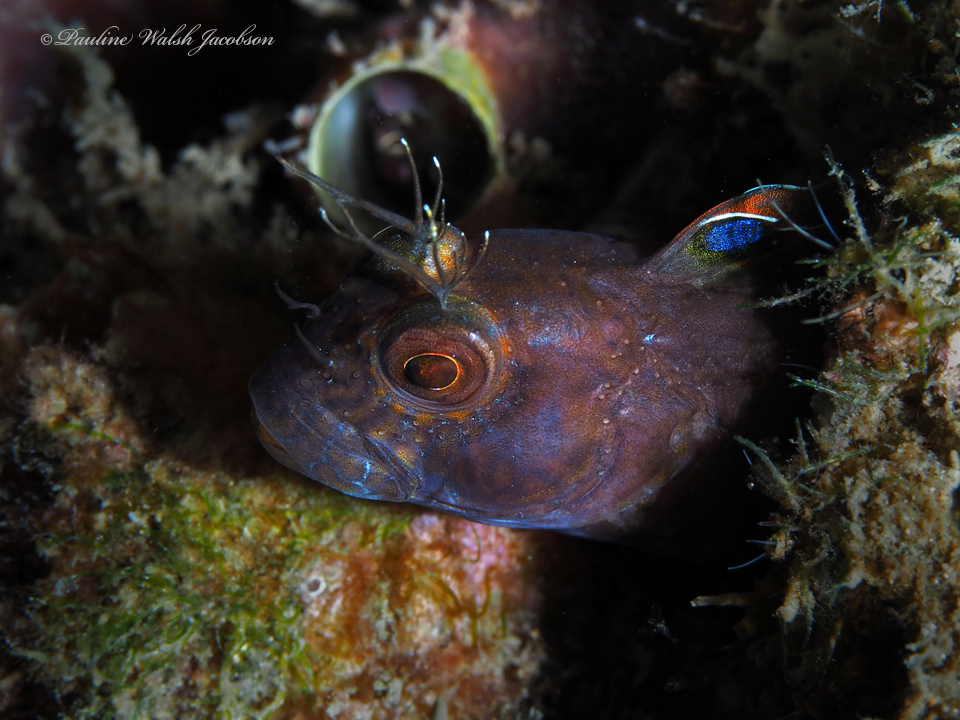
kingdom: Animalia
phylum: Chordata
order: Perciformes
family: Blenniidae
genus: Parablennius
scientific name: Parablennius marmoreus
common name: Seaweed blenny
